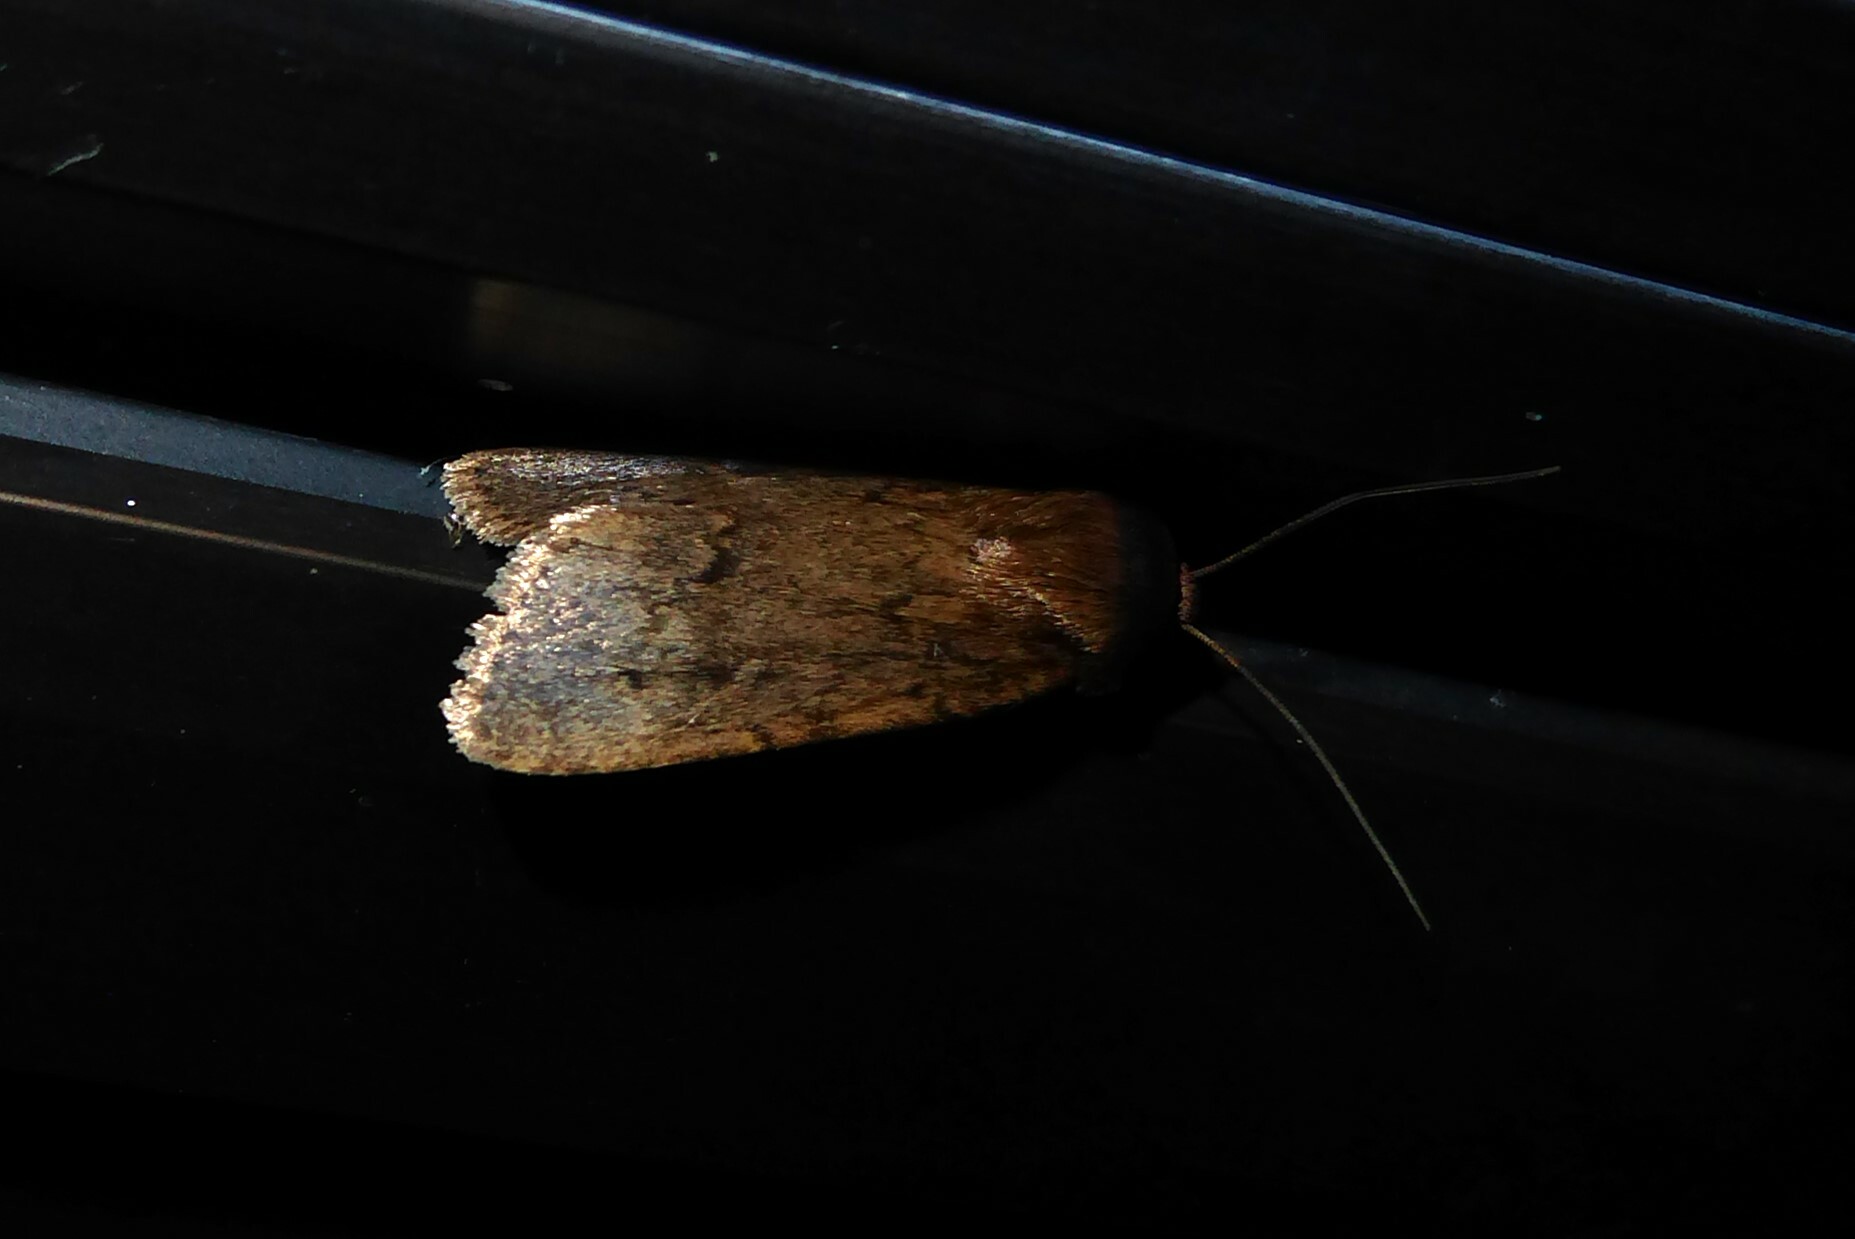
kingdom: Animalia
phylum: Arthropoda
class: Insecta
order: Lepidoptera
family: Noctuidae
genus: Bityla
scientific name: Bityla defigurata
